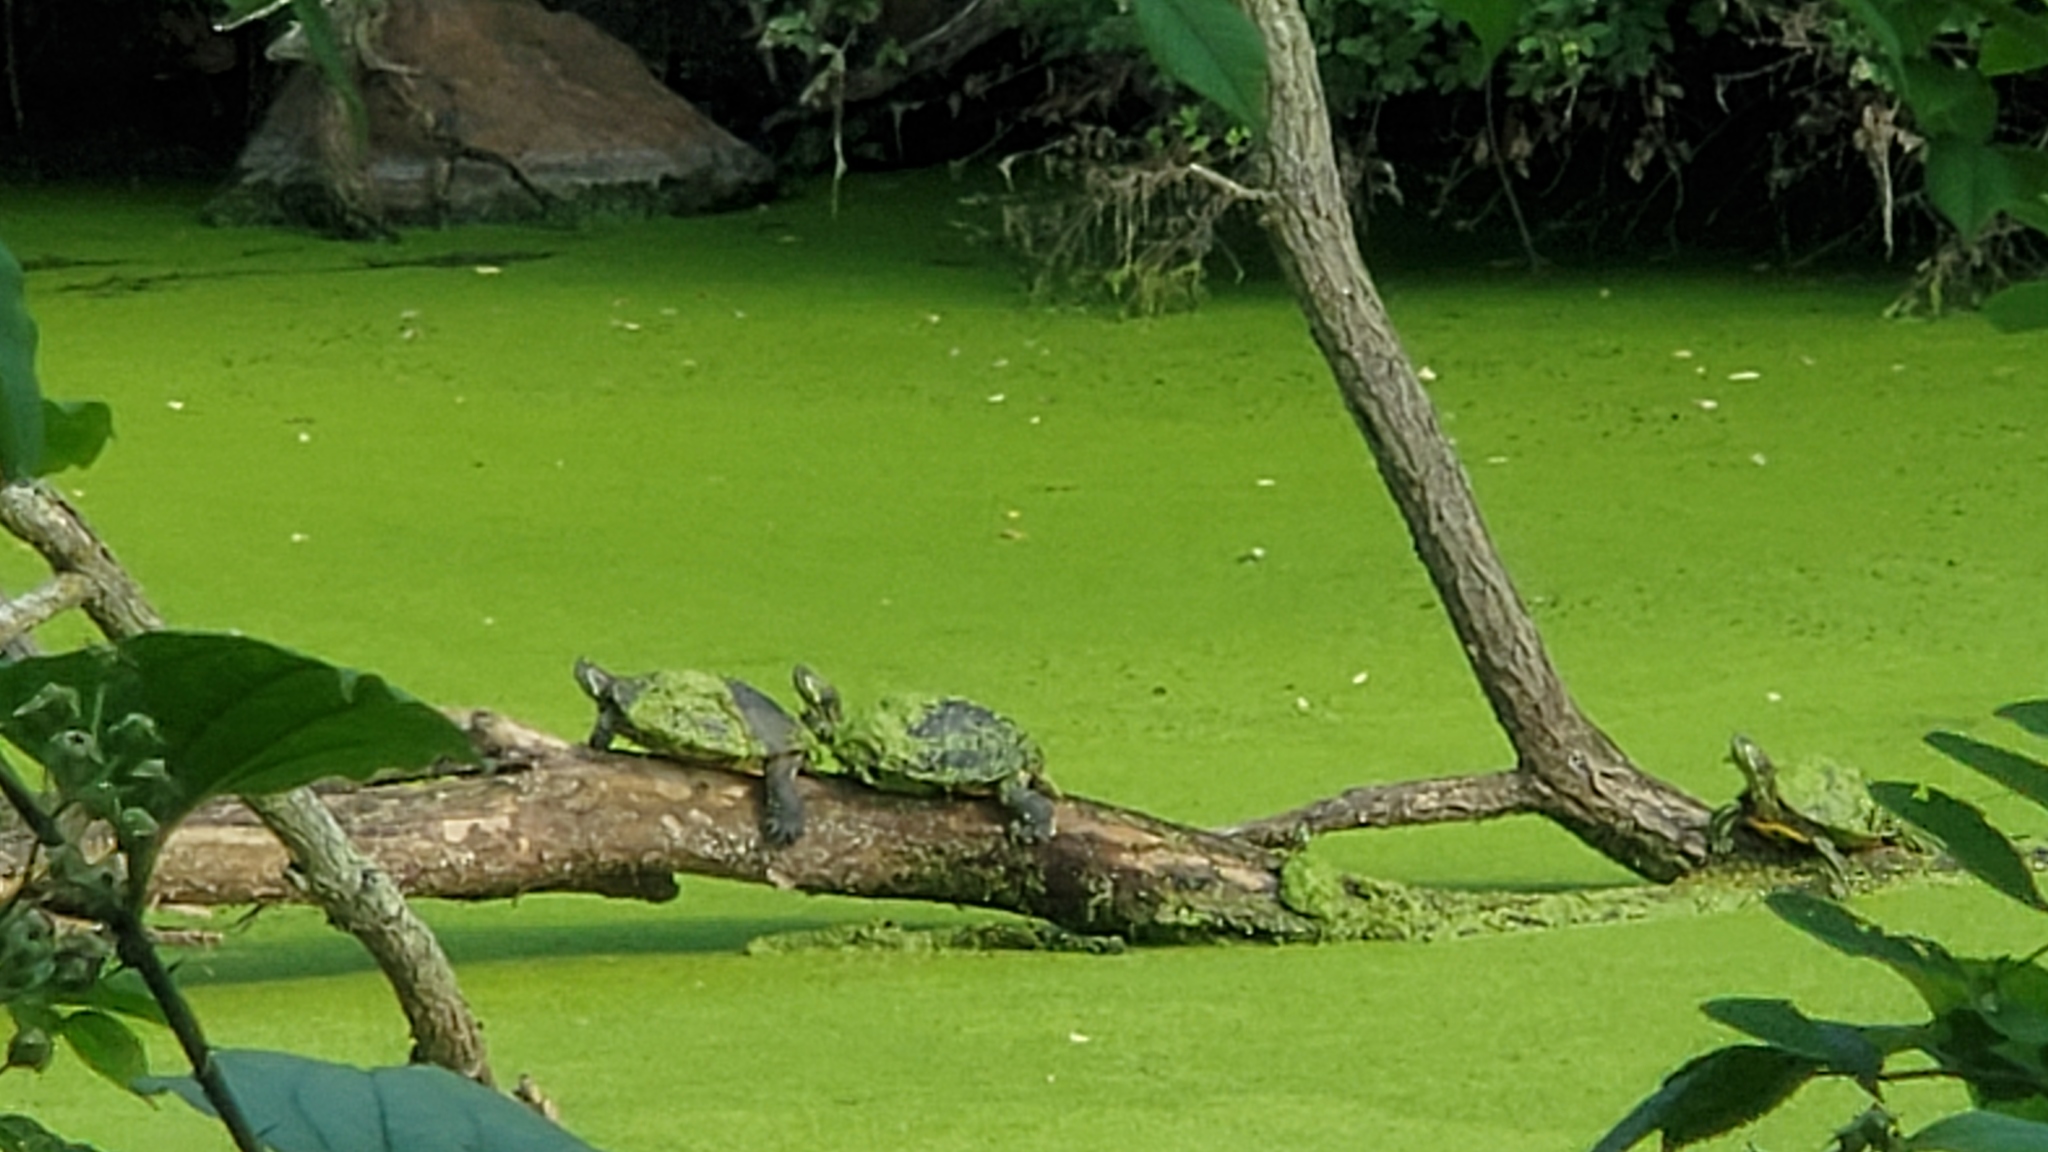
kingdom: Animalia
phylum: Chordata
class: Testudines
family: Emydidae
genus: Trachemys
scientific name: Trachemys scripta
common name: Slider
